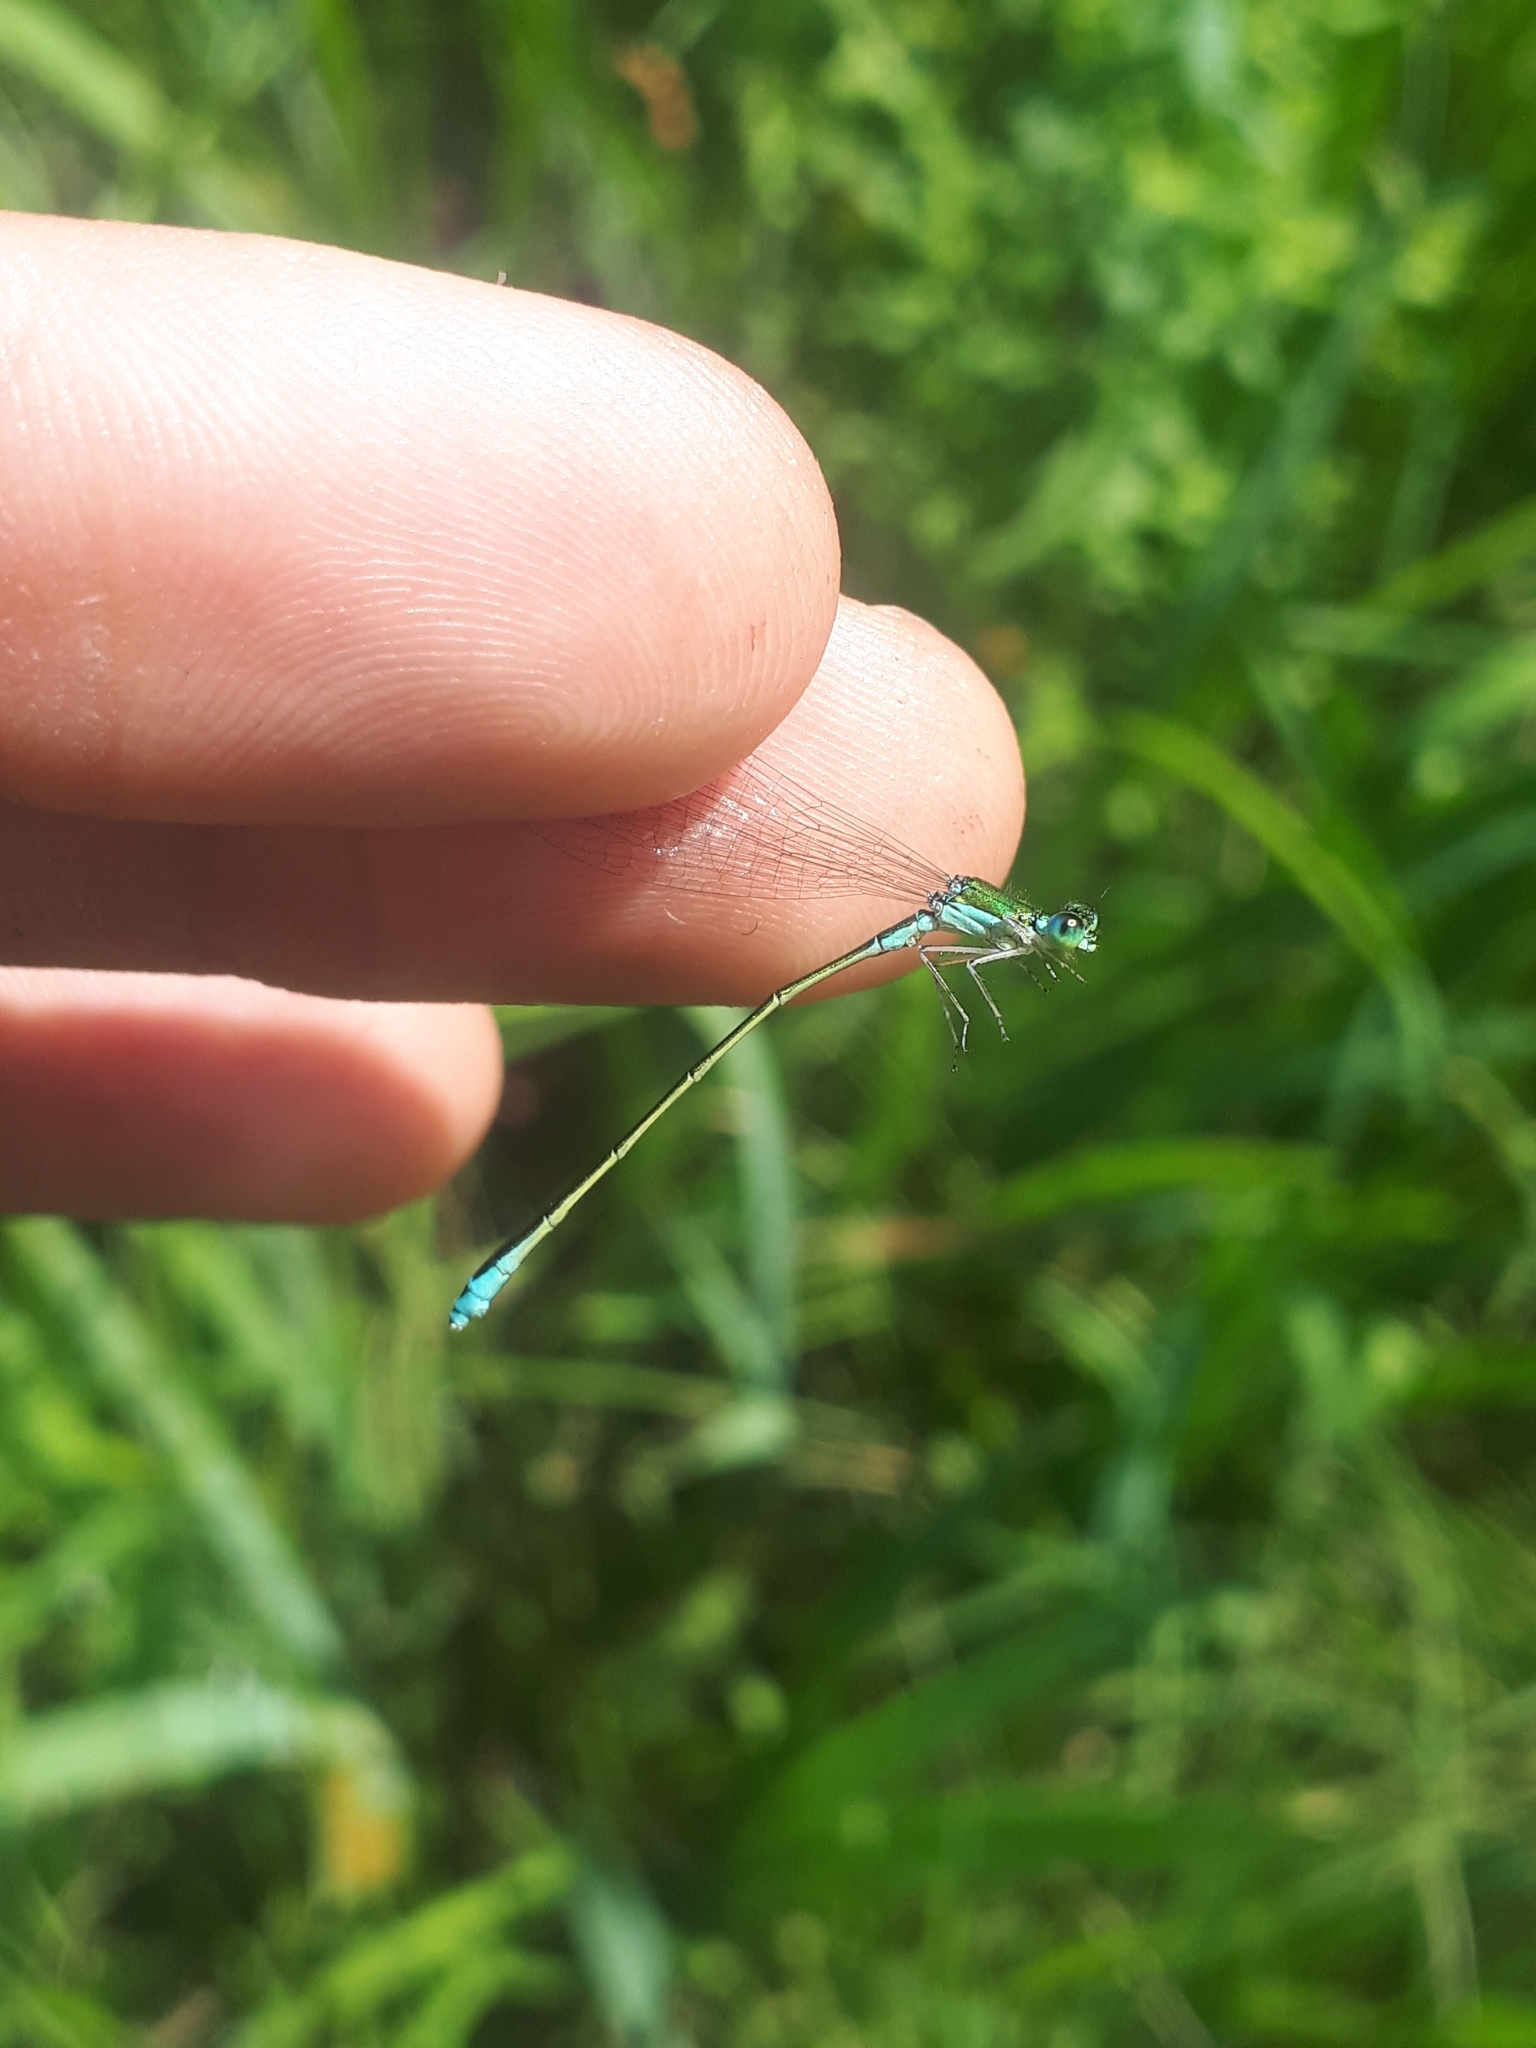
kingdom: Animalia
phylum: Arthropoda
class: Insecta
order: Odonata
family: Coenagrionidae
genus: Nehalennia
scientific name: Nehalennia irene
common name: Sedge sprite
